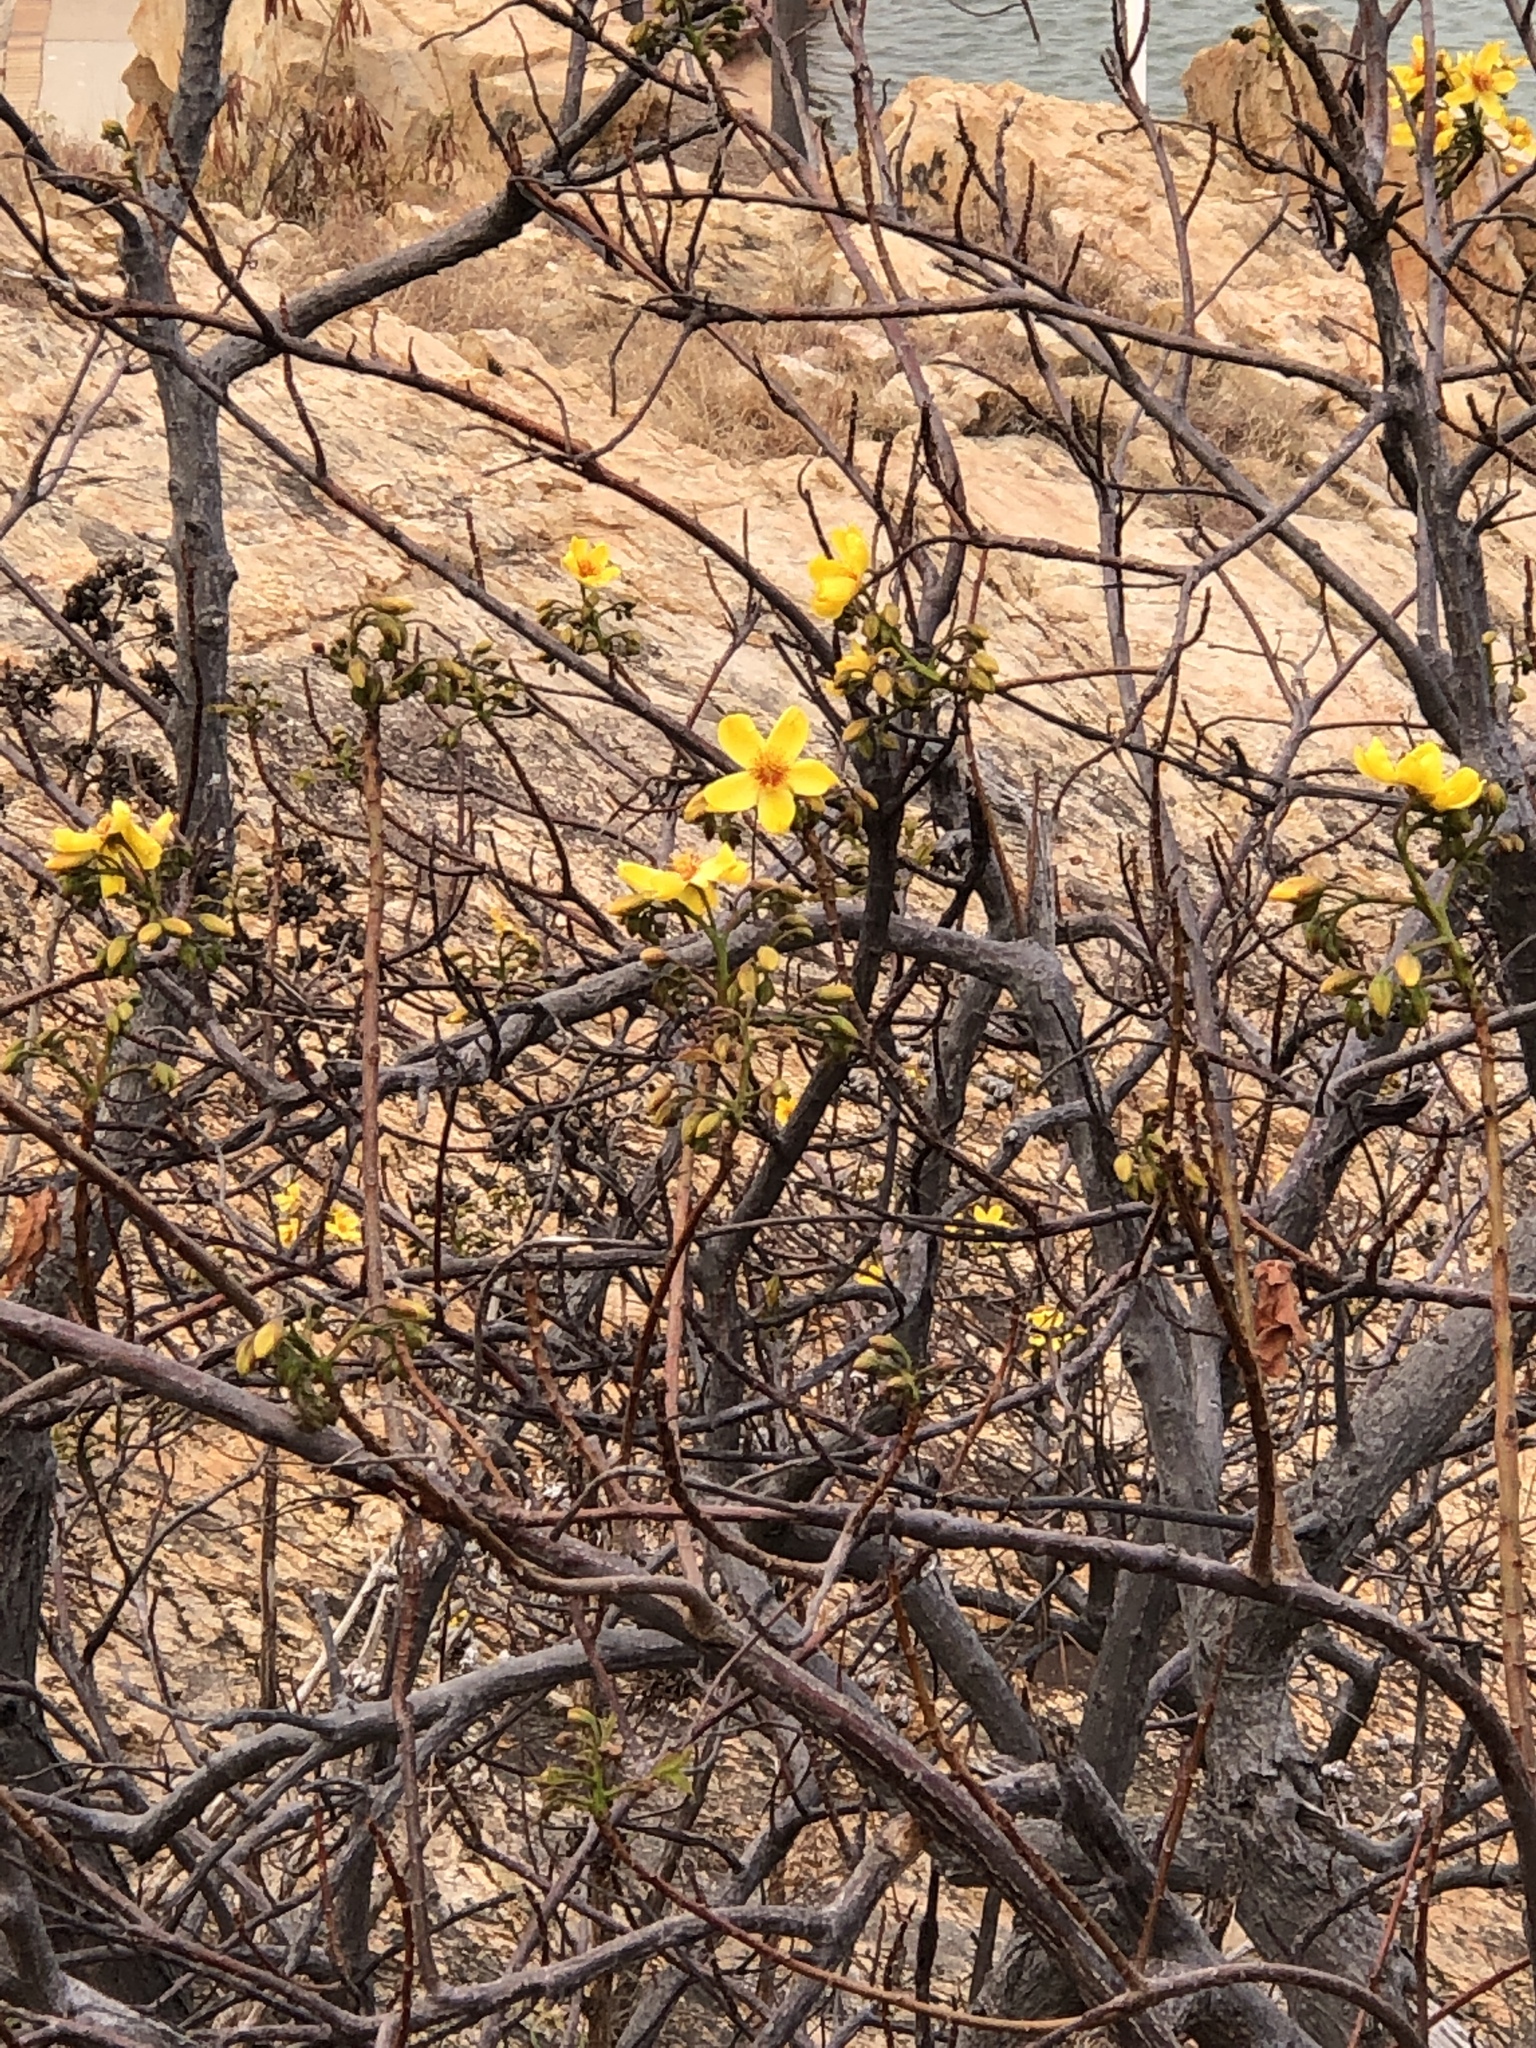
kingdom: Plantae
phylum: Tracheophyta
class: Magnoliopsida
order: Malvales
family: Cochlospermaceae
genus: Cochlospermum
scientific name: Cochlospermum gillivraei
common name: Cottontree
